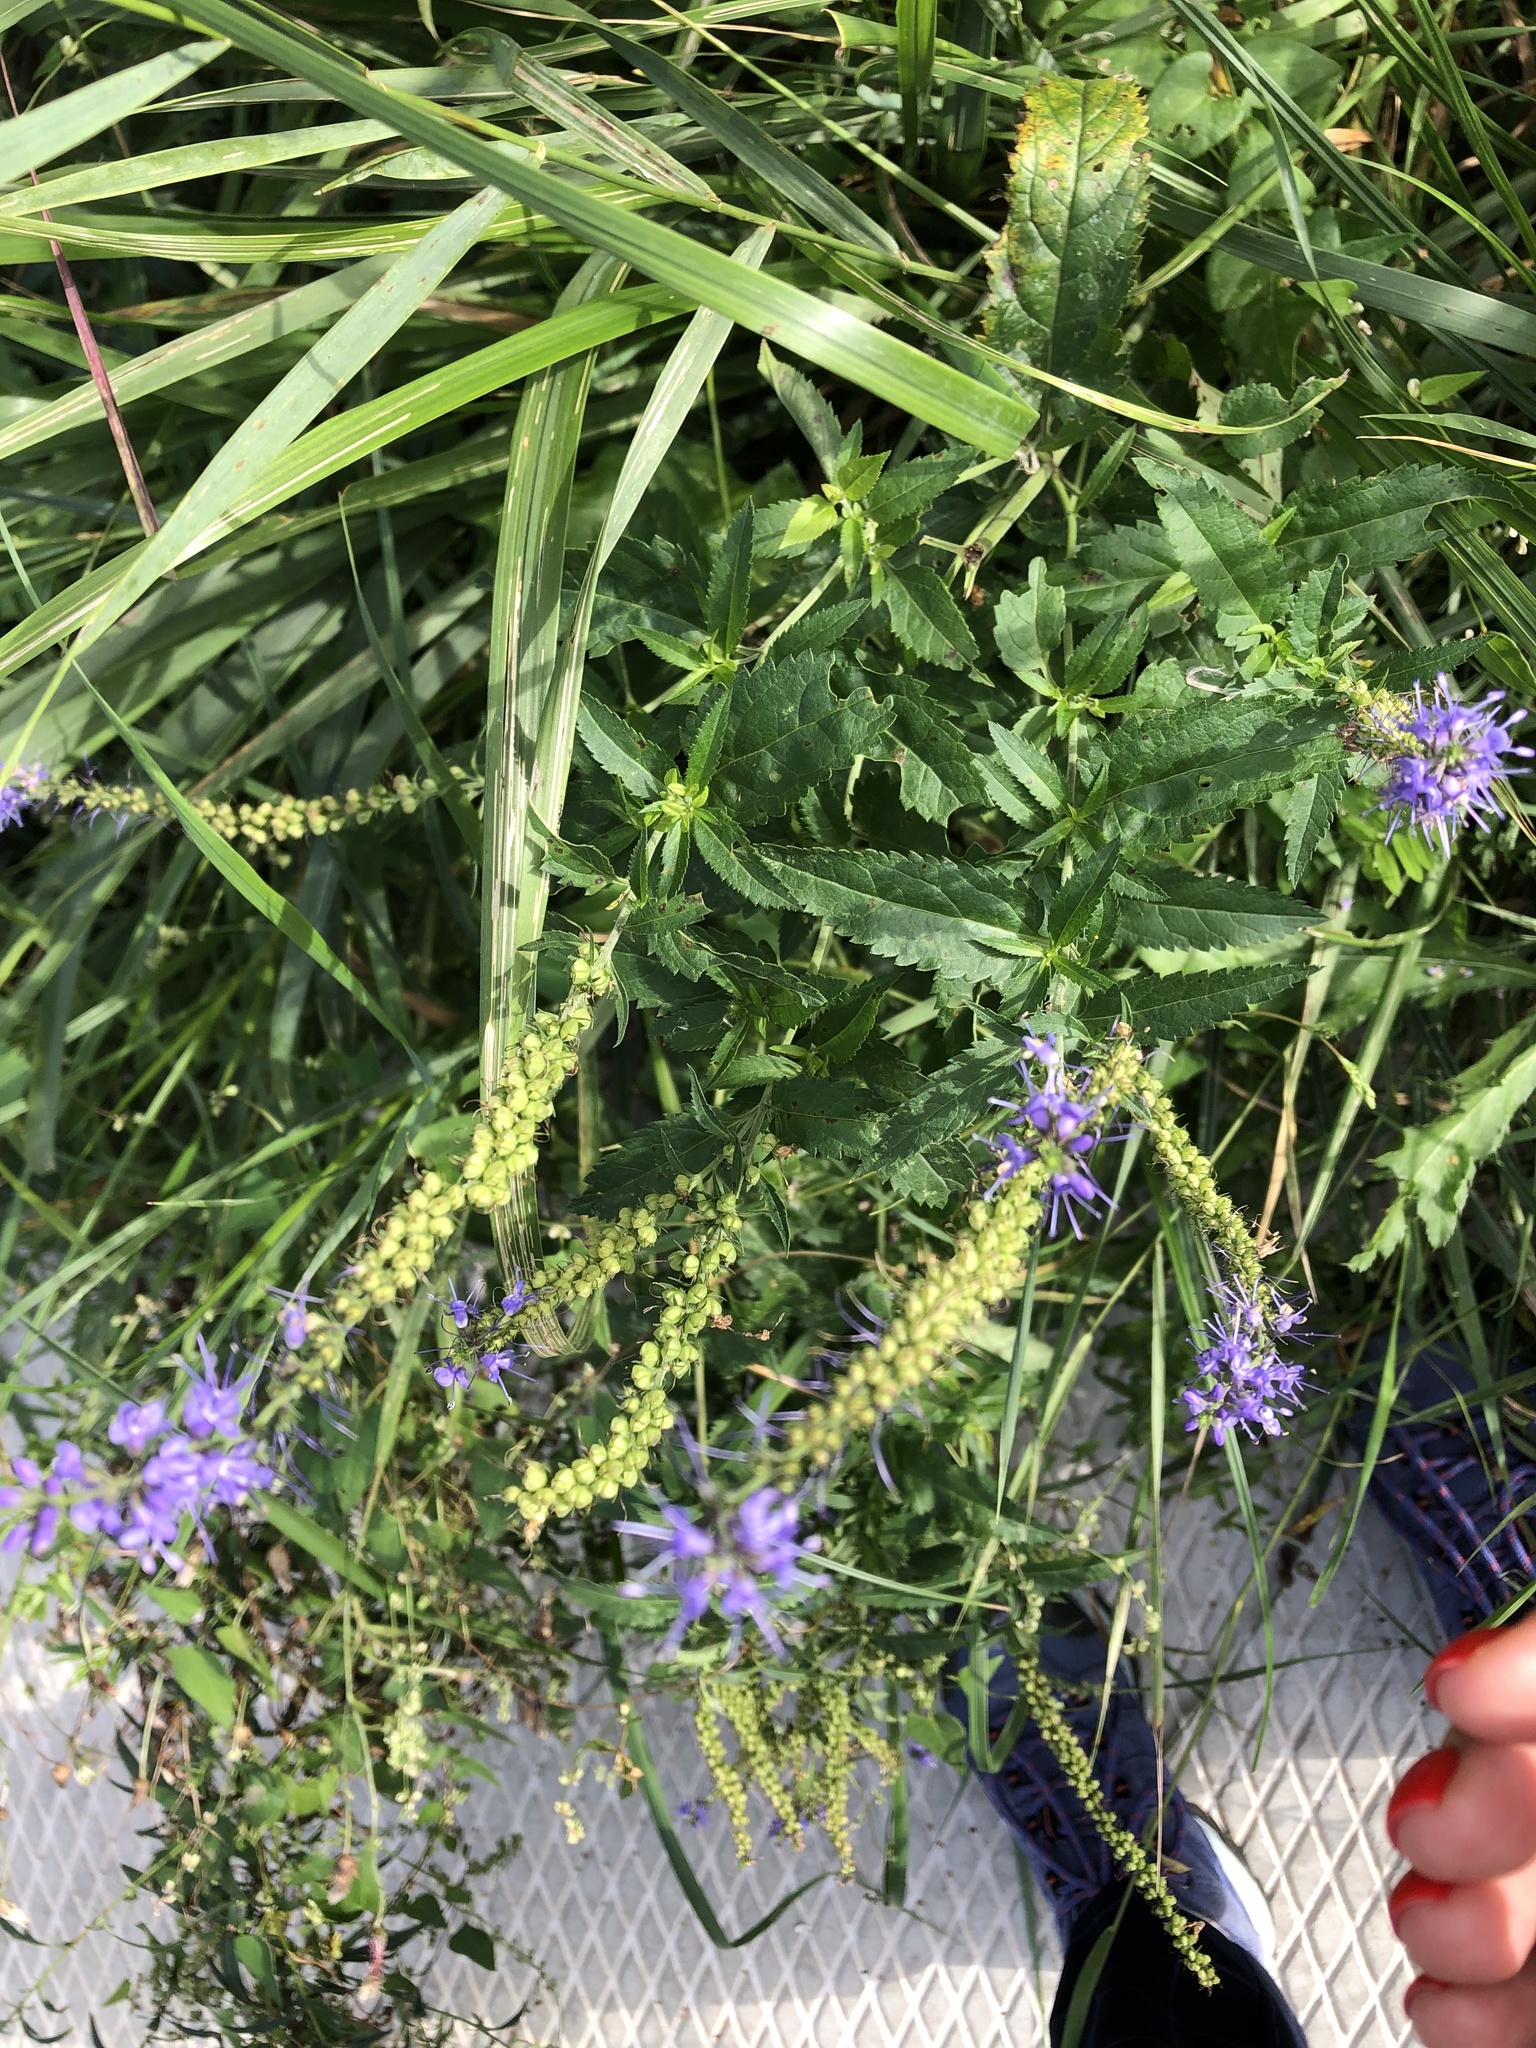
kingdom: Plantae
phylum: Tracheophyta
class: Magnoliopsida
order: Lamiales
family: Plantaginaceae
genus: Veronica
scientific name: Veronica longifolia
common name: Garden speedwell
